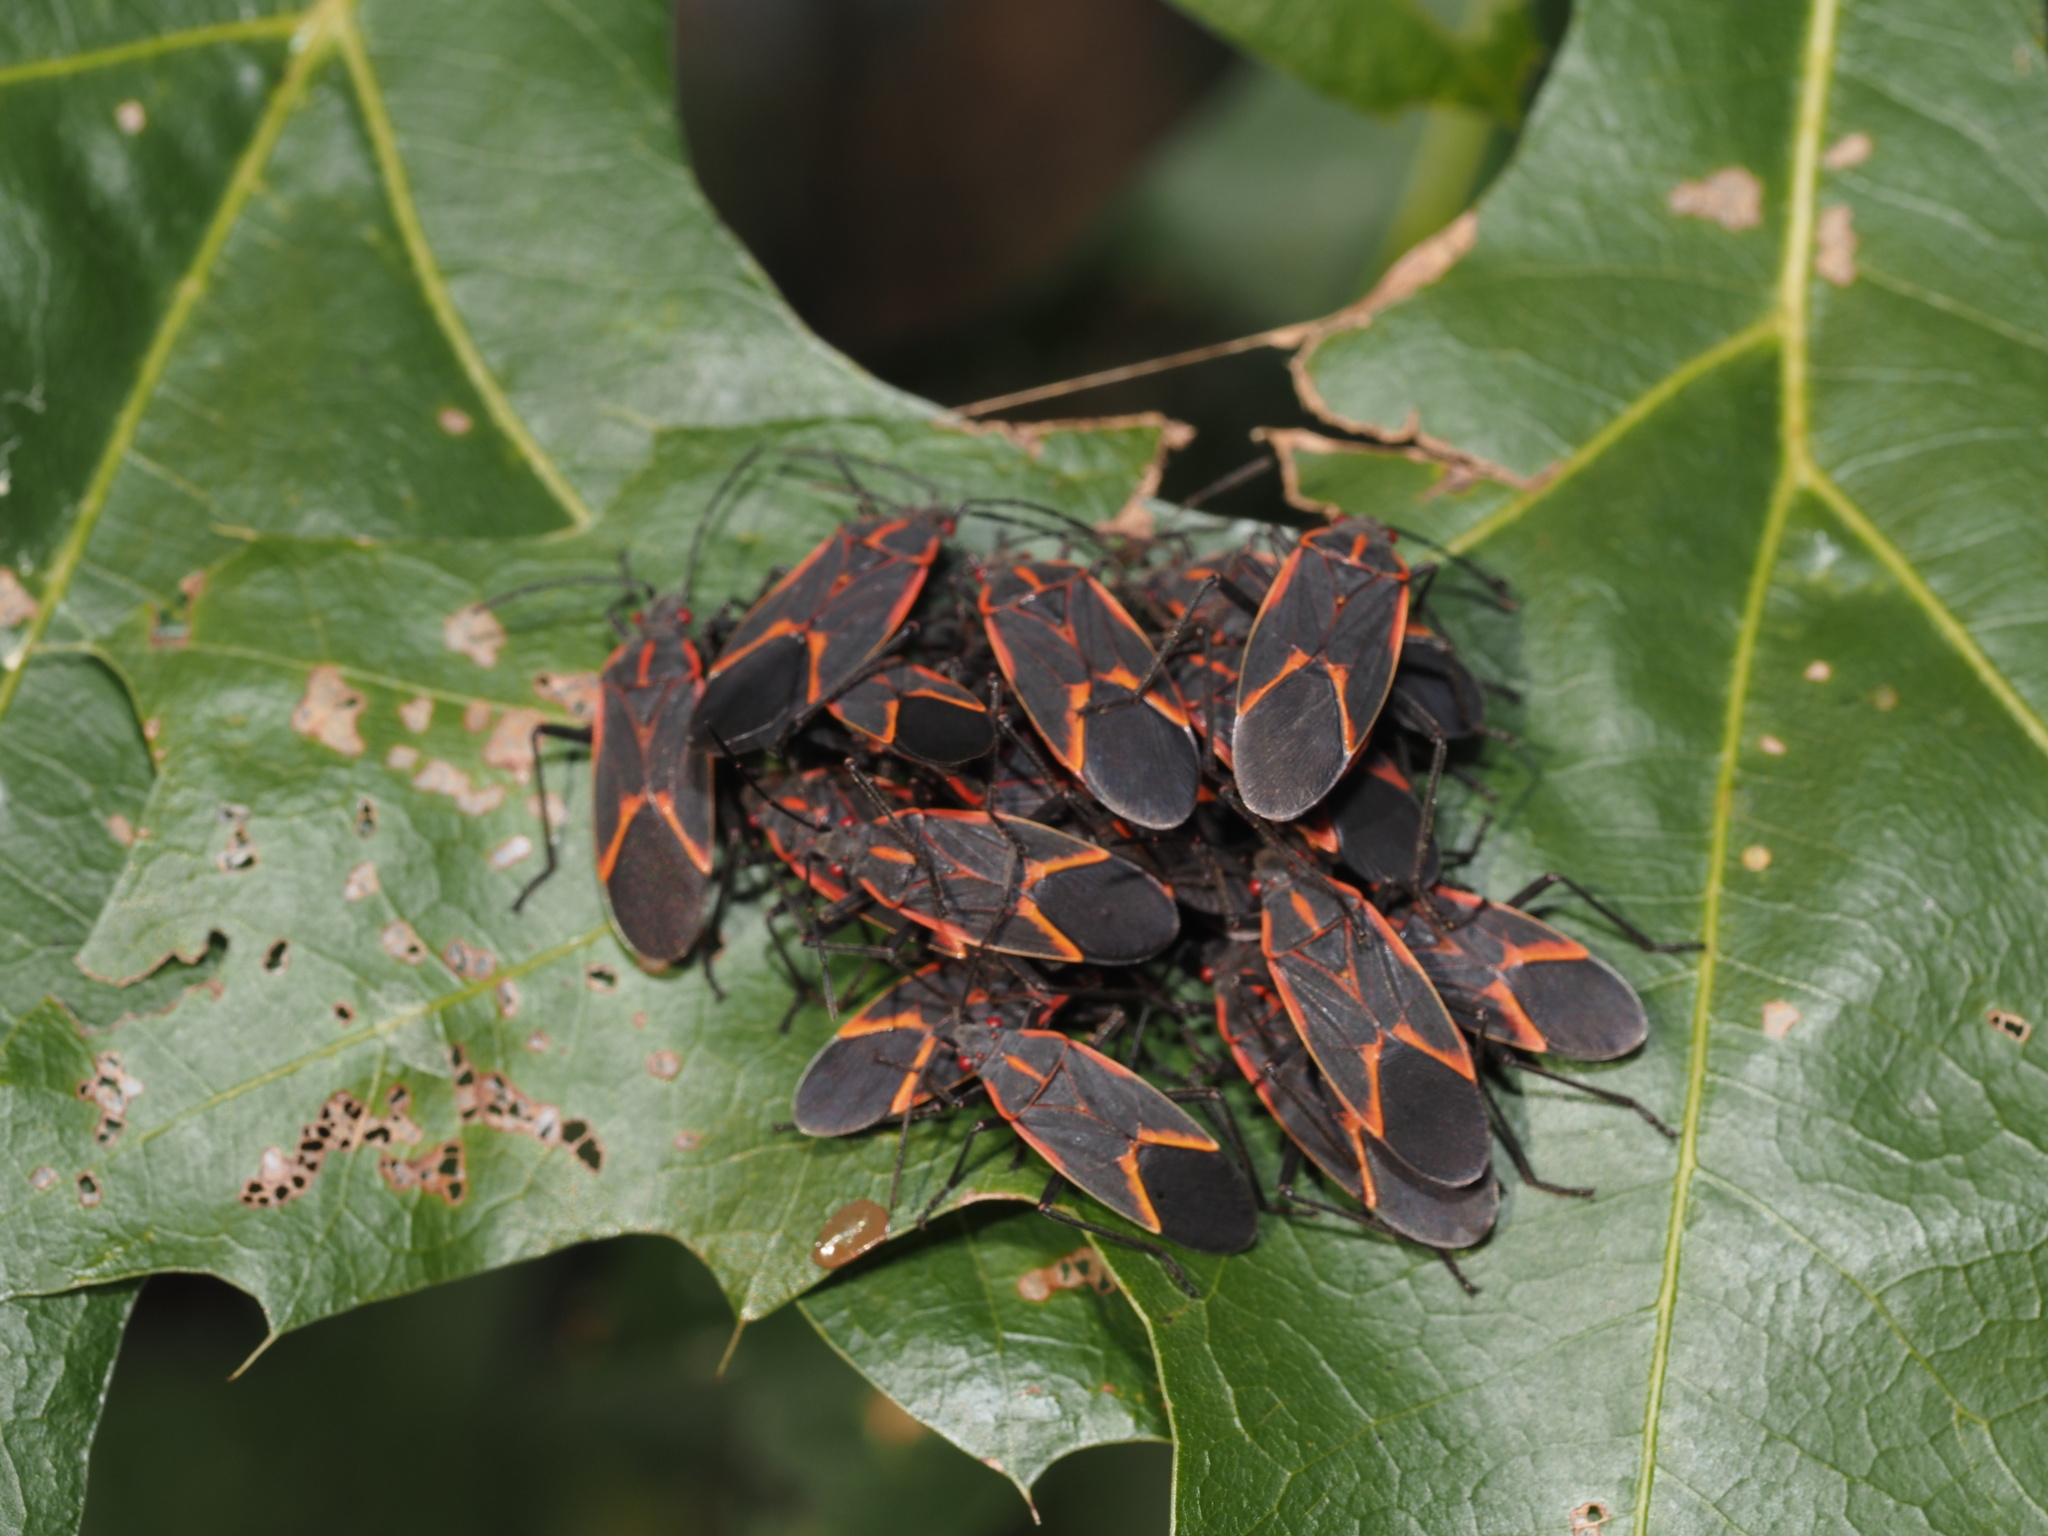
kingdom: Animalia
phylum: Arthropoda
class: Insecta
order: Hemiptera
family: Rhopalidae
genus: Boisea
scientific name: Boisea trivittata
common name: Boxelder bug
